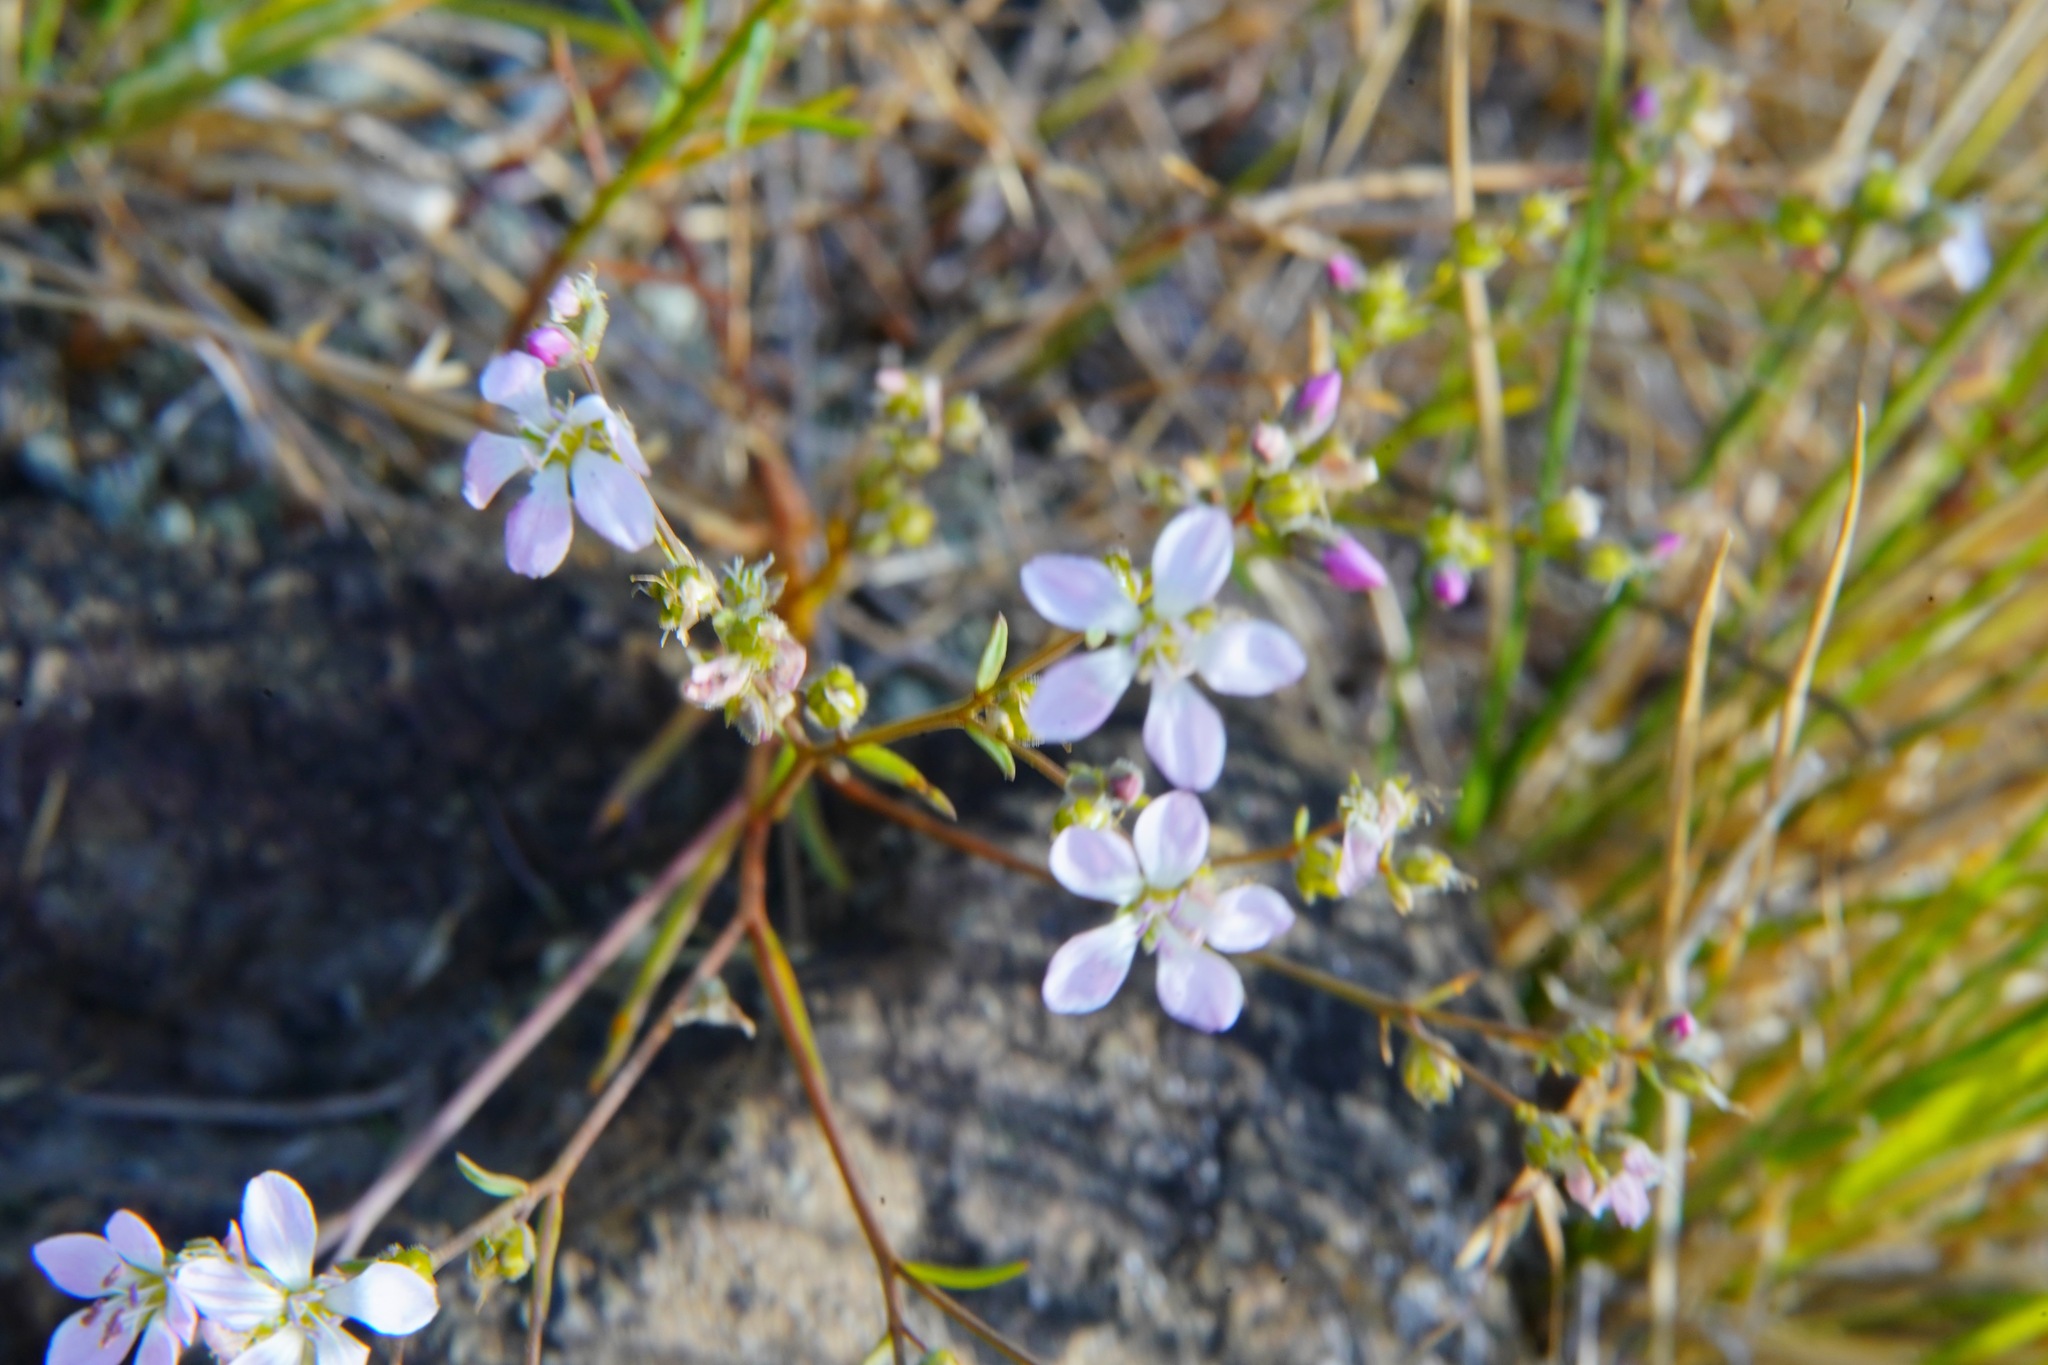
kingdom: Plantae
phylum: Tracheophyta
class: Magnoliopsida
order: Malpighiales
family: Linaceae
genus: Hesperolinon
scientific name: Hesperolinon congestum
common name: Marin dwarf-flax
